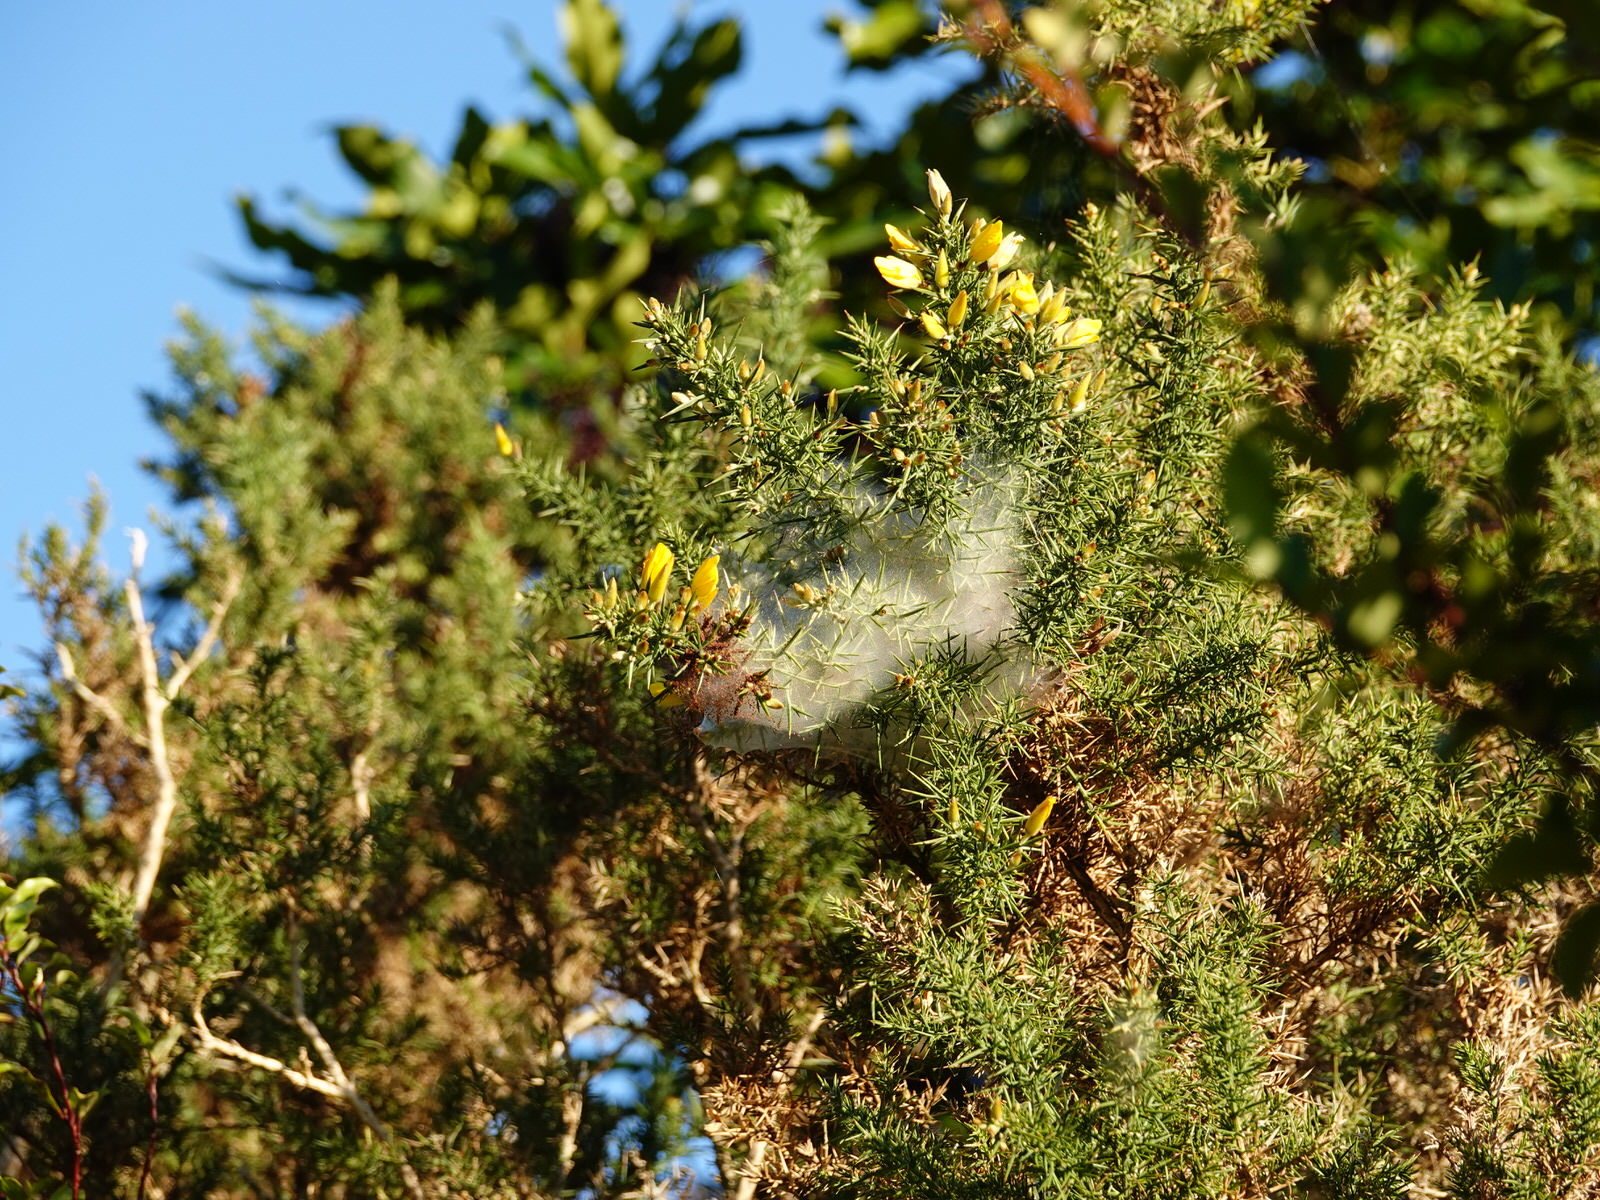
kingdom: Plantae
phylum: Tracheophyta
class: Magnoliopsida
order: Fabales
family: Fabaceae
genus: Ulex
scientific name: Ulex europaeus
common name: Common gorse
